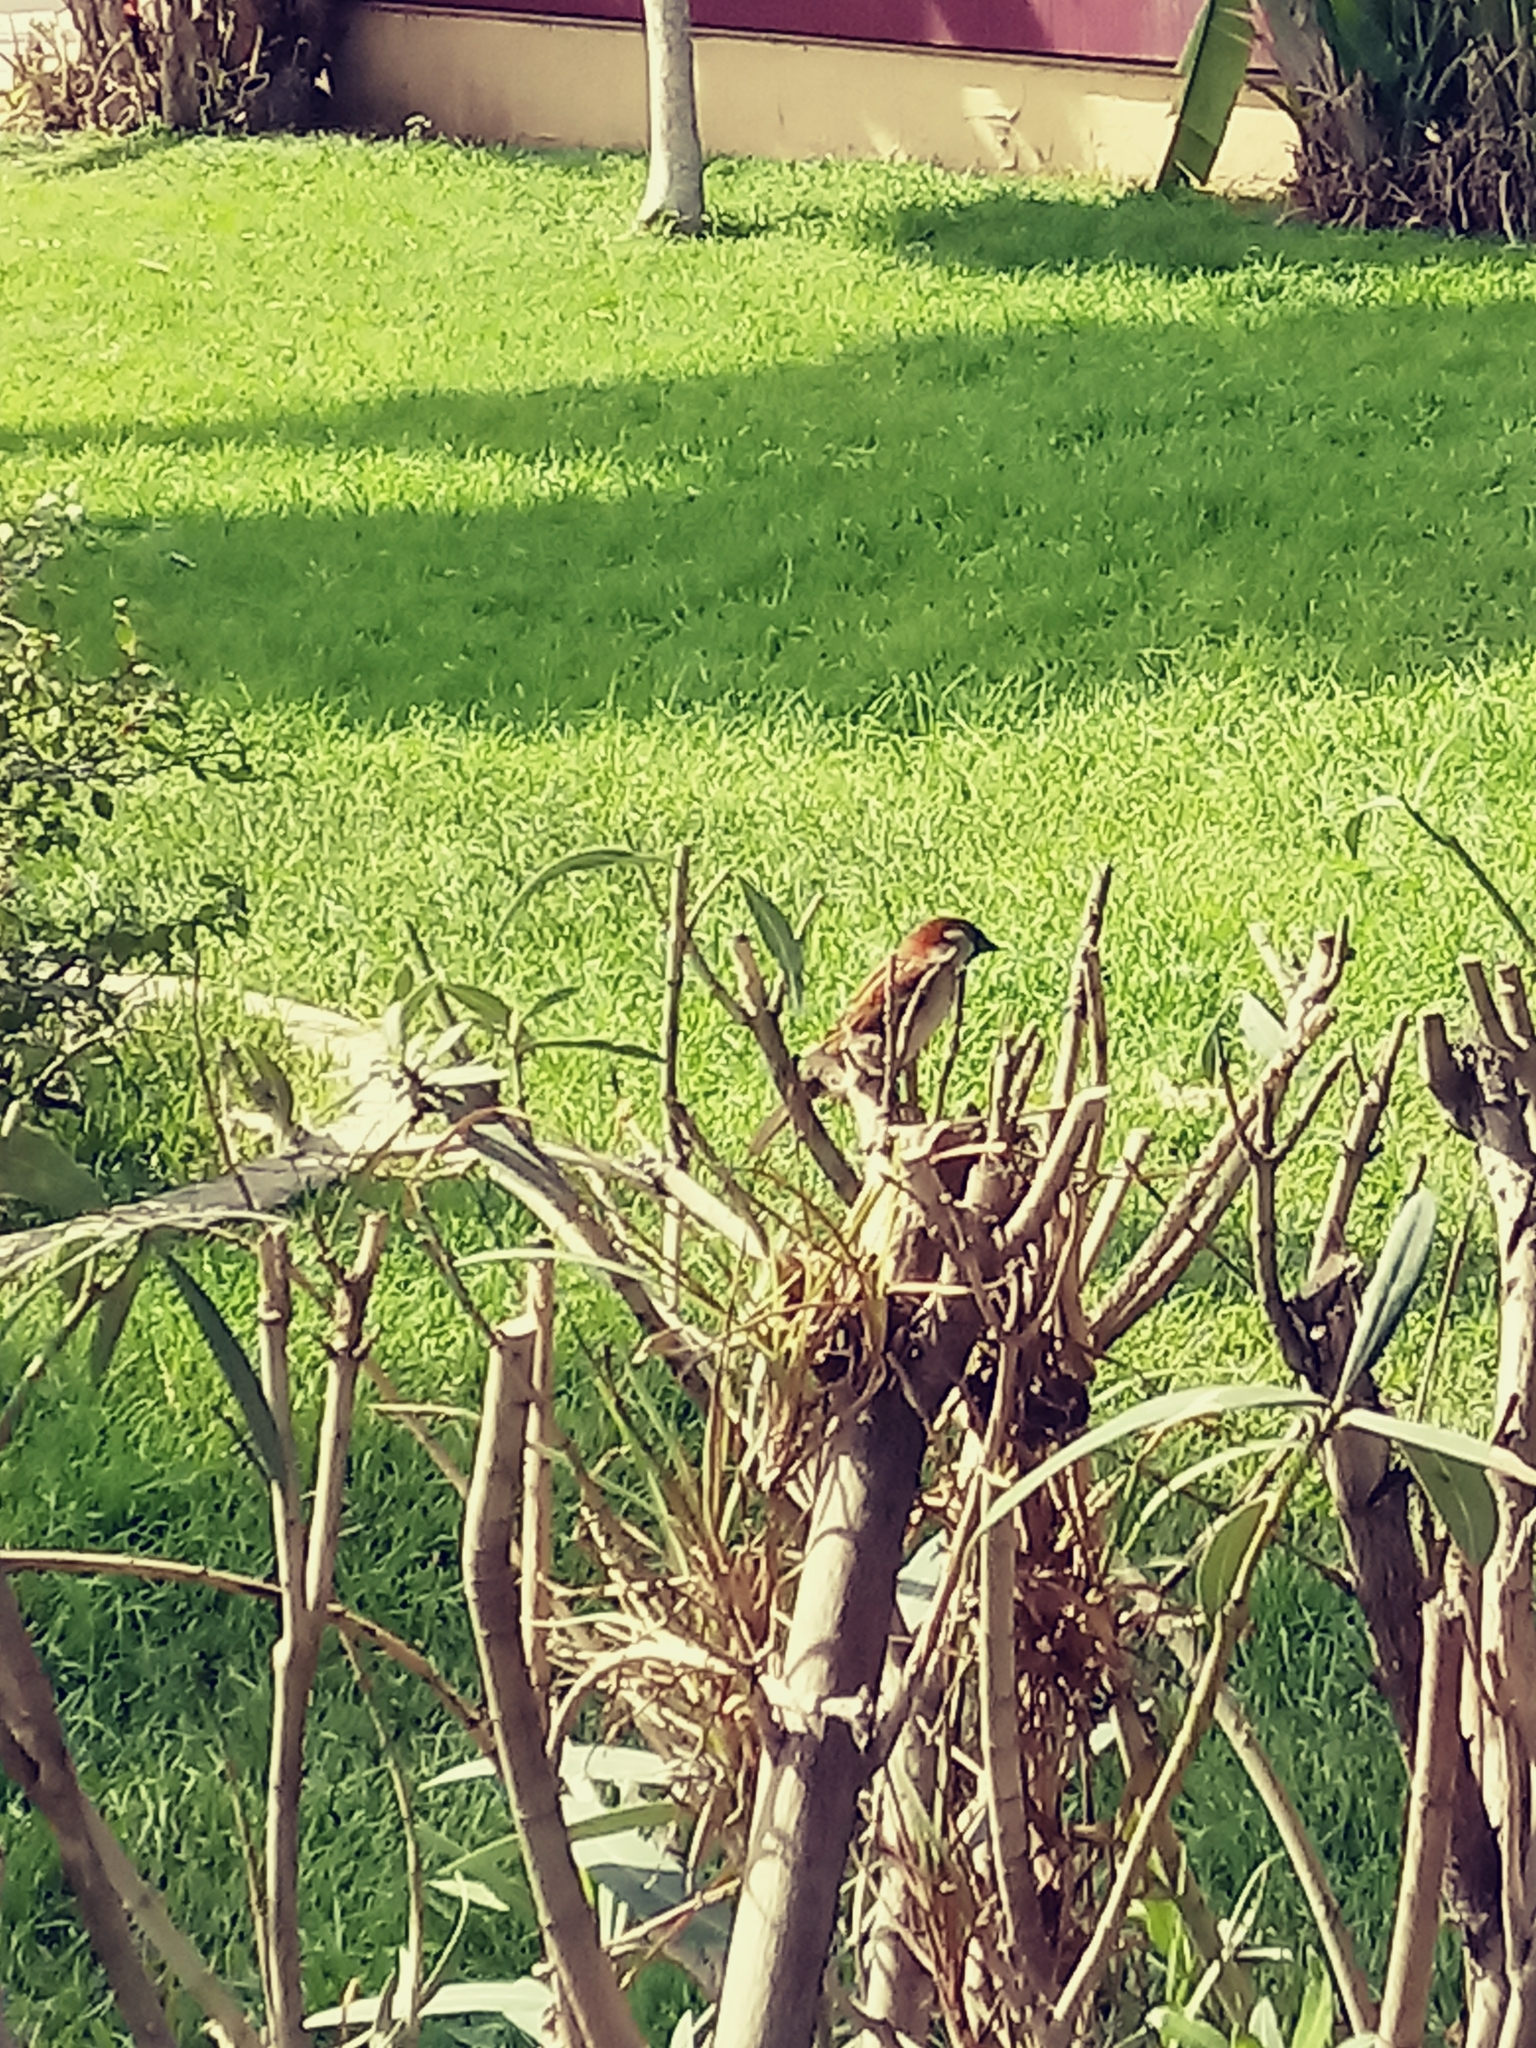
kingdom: Animalia
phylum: Chordata
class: Aves
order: Passeriformes
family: Passeridae
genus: Passer
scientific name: Passer domesticus
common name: House sparrow
